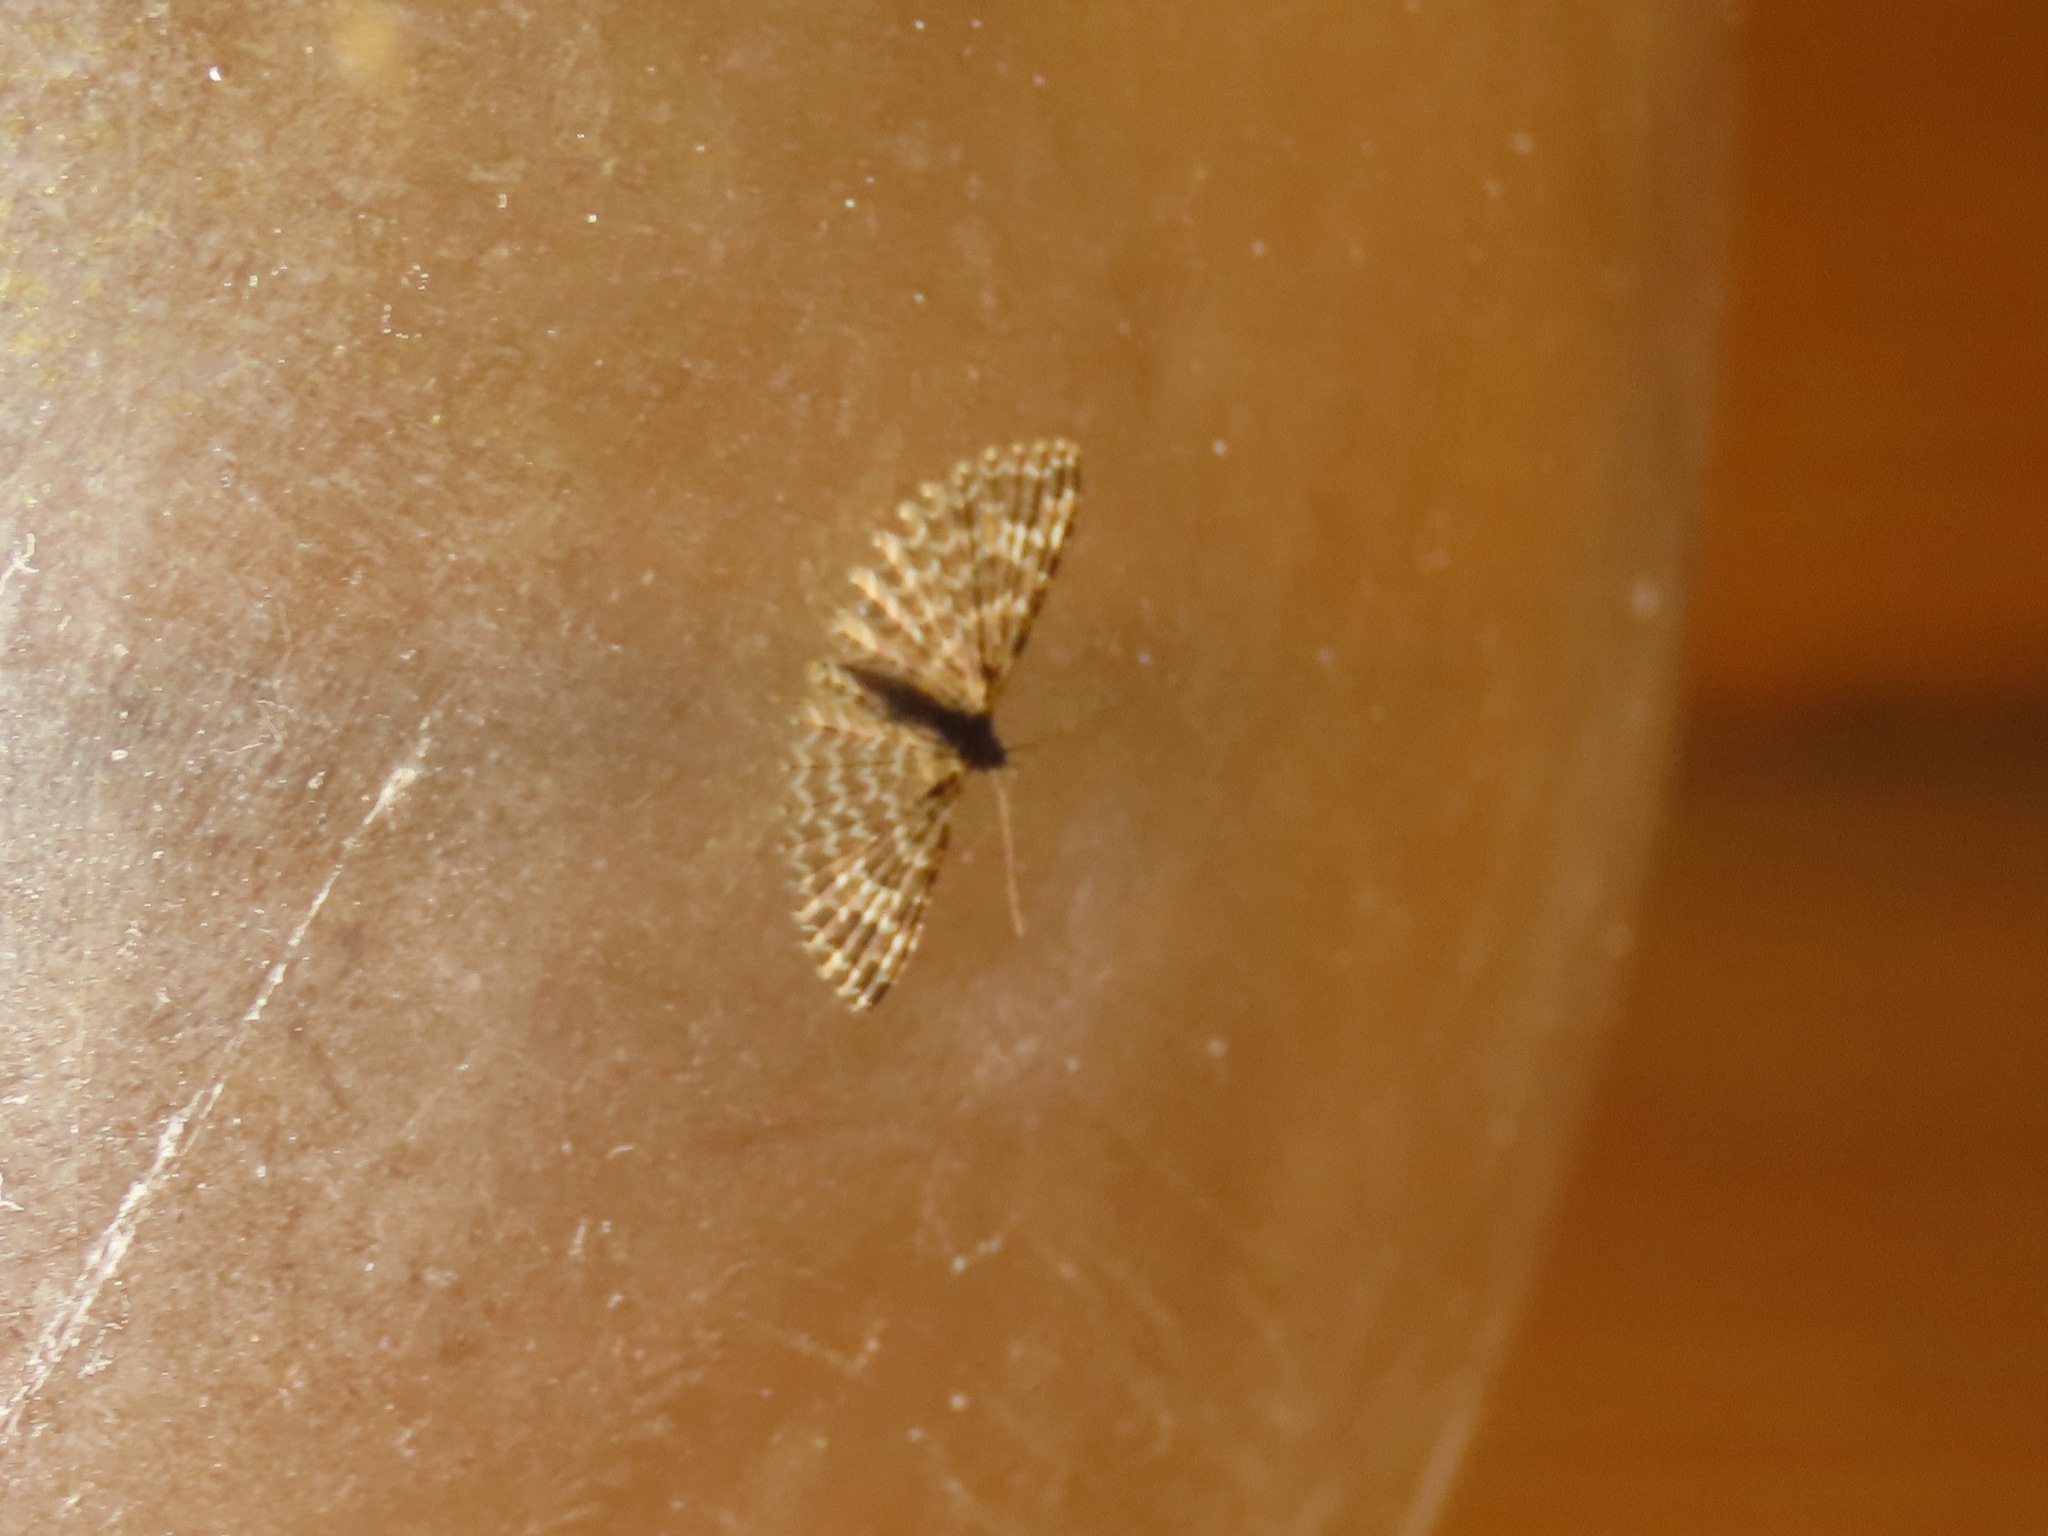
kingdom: Animalia
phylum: Arthropoda
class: Insecta
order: Lepidoptera
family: Alucitidae
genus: Alucita
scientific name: Alucita montana
